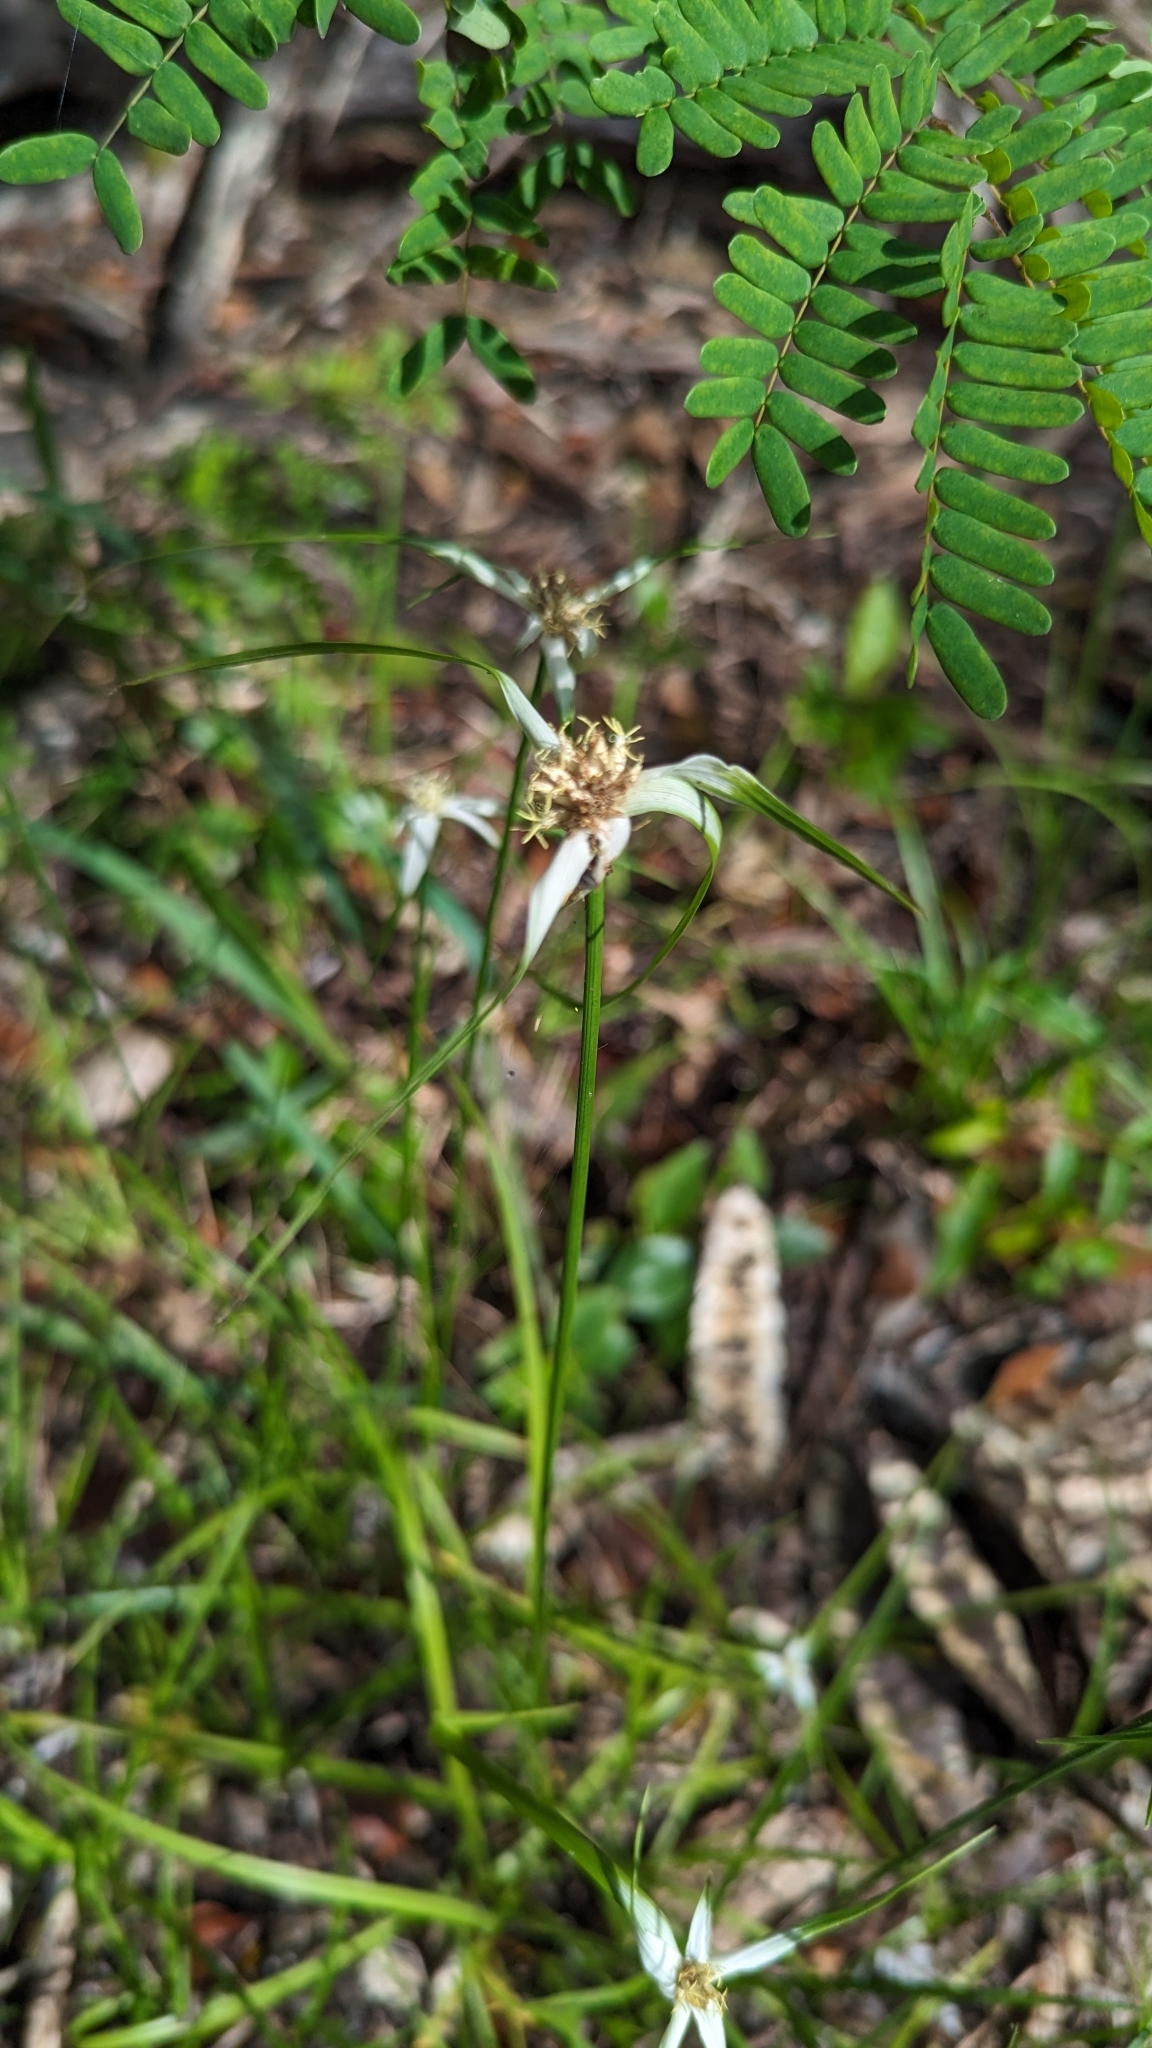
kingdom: Plantae
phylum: Tracheophyta
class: Liliopsida
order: Poales
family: Cyperaceae
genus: Rhynchospora
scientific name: Rhynchospora colorata
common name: Star sedge
